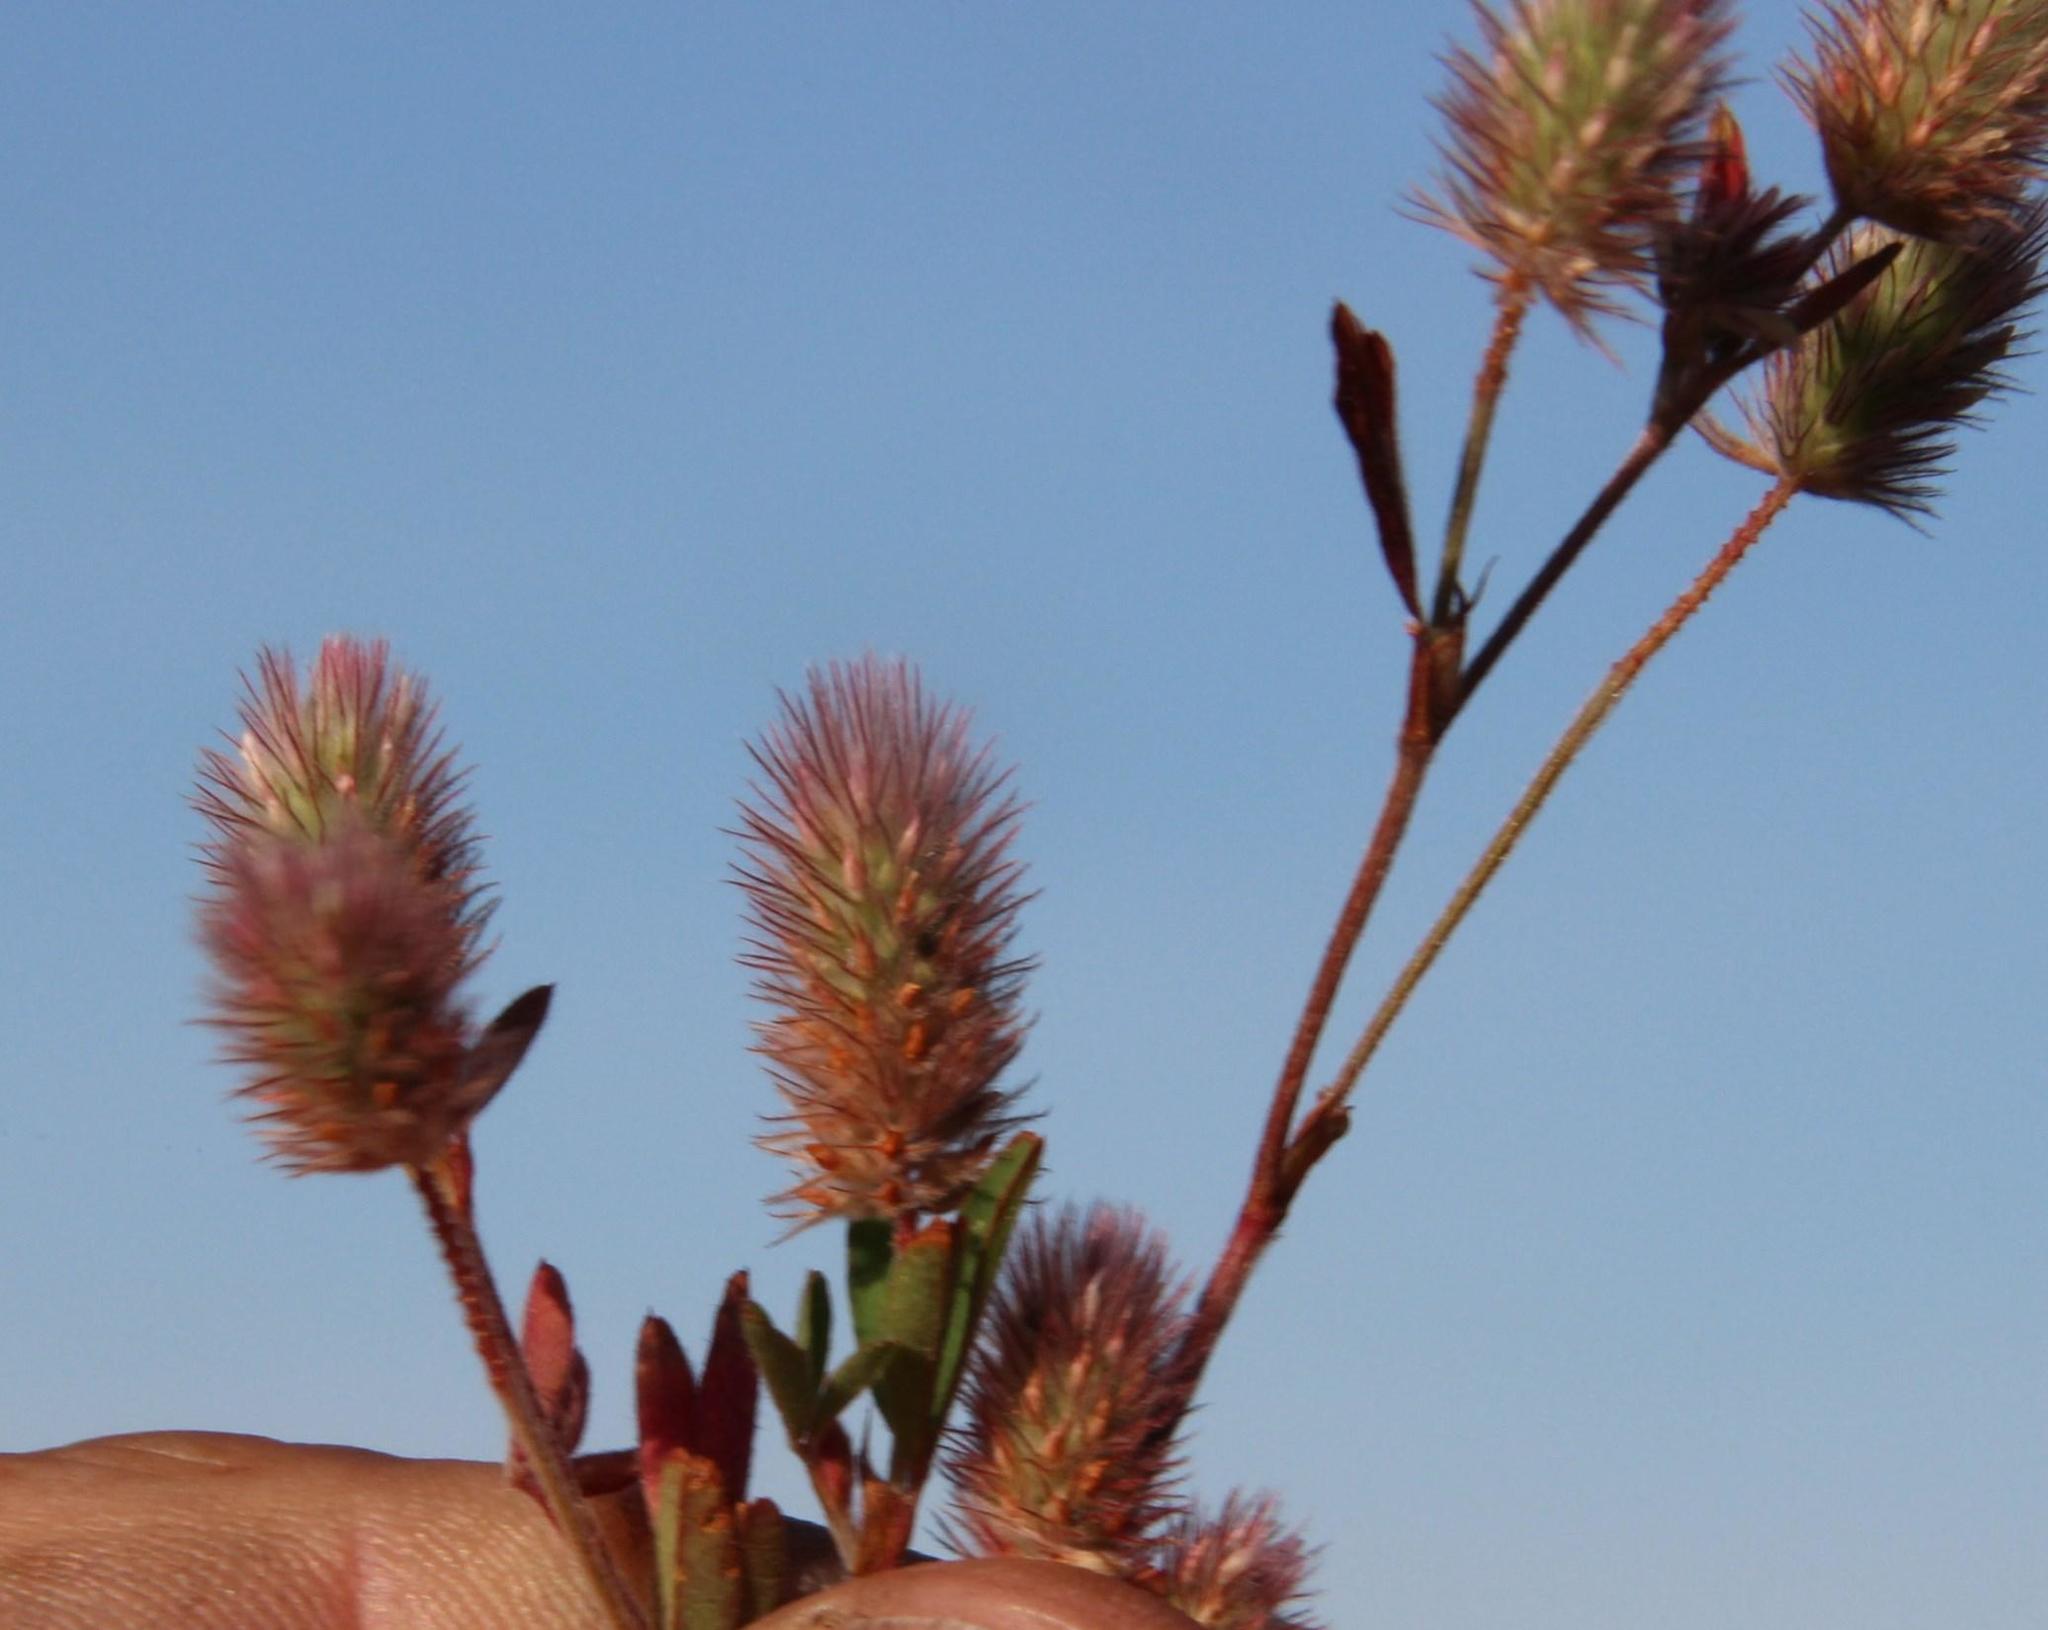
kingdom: Plantae
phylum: Tracheophyta
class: Magnoliopsida
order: Fabales
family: Fabaceae
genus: Trifolium
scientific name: Trifolium arvense
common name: Hare's-foot clover
